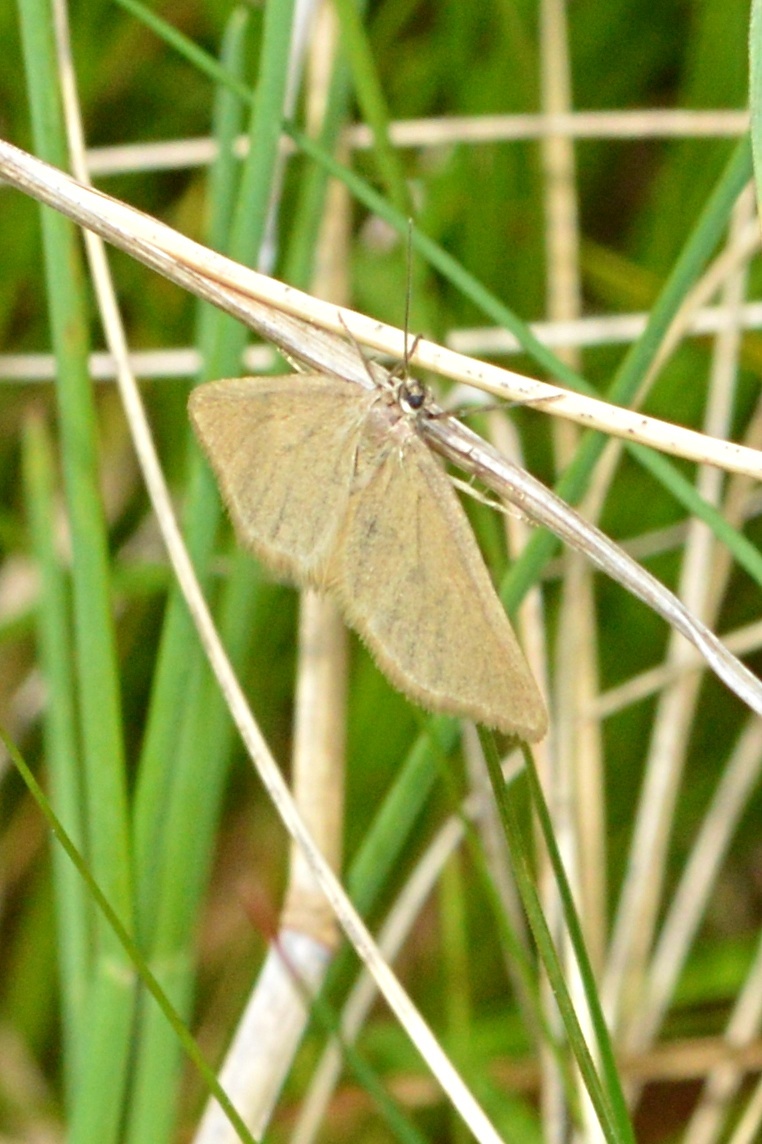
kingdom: Animalia
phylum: Arthropoda
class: Insecta
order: Lepidoptera
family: Geometridae
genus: Minoa
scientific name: Minoa murinata
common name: Drab looper
